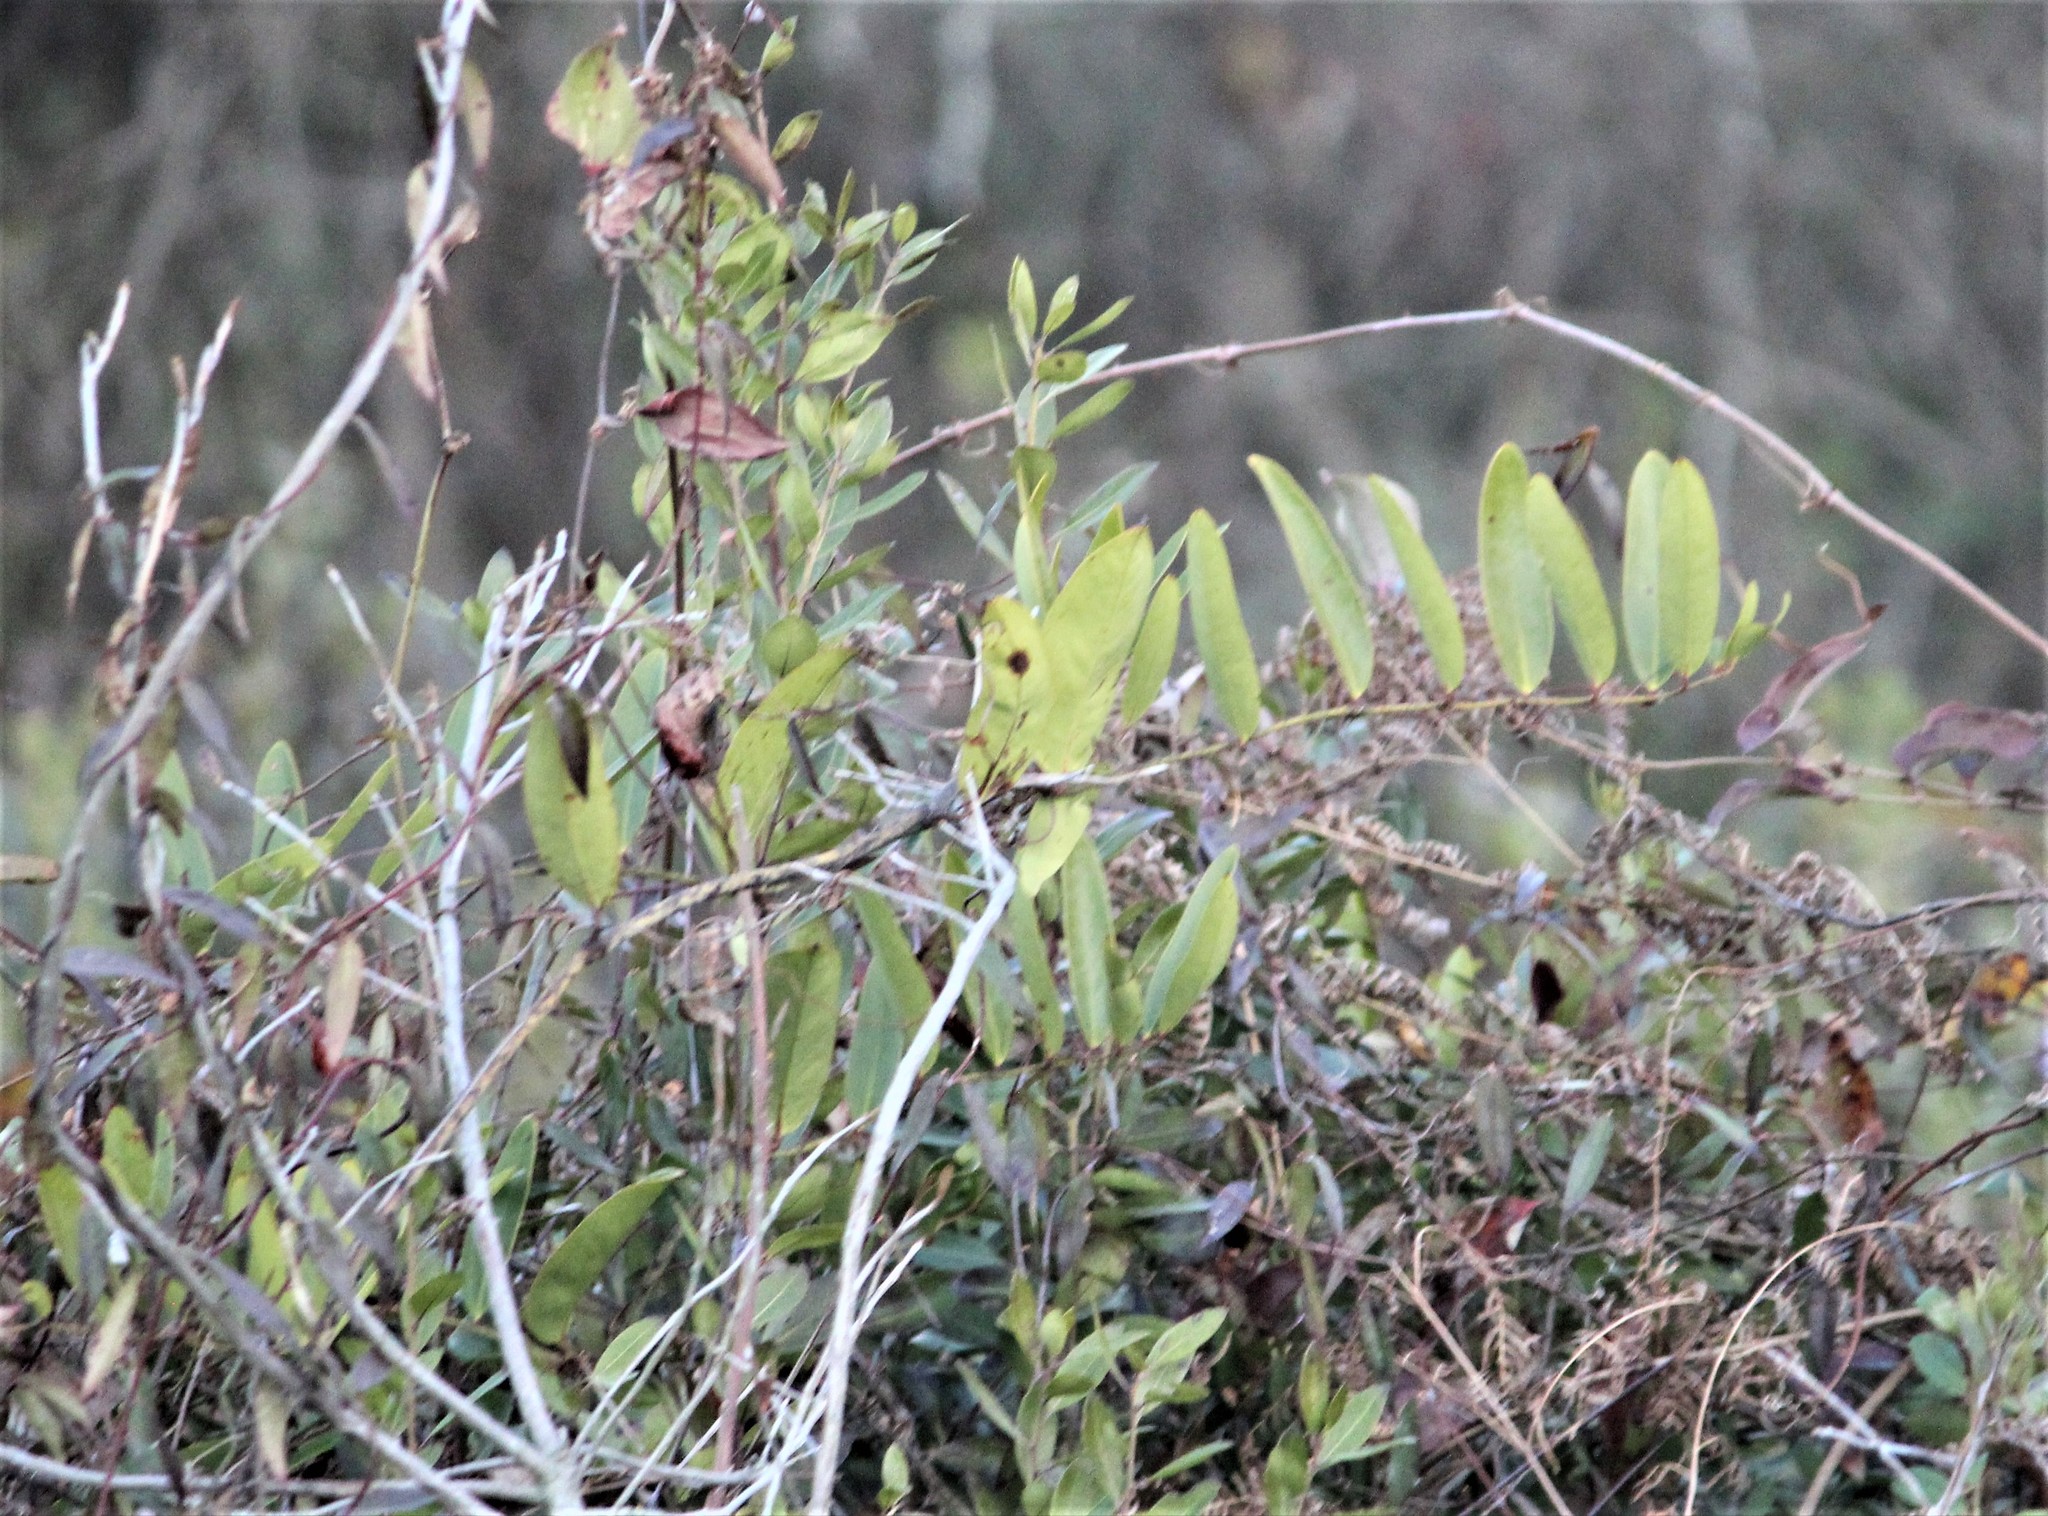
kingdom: Plantae
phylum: Tracheophyta
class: Liliopsida
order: Liliales
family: Smilacaceae
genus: Smilax
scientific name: Smilax laurifolia
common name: Bamboovine
